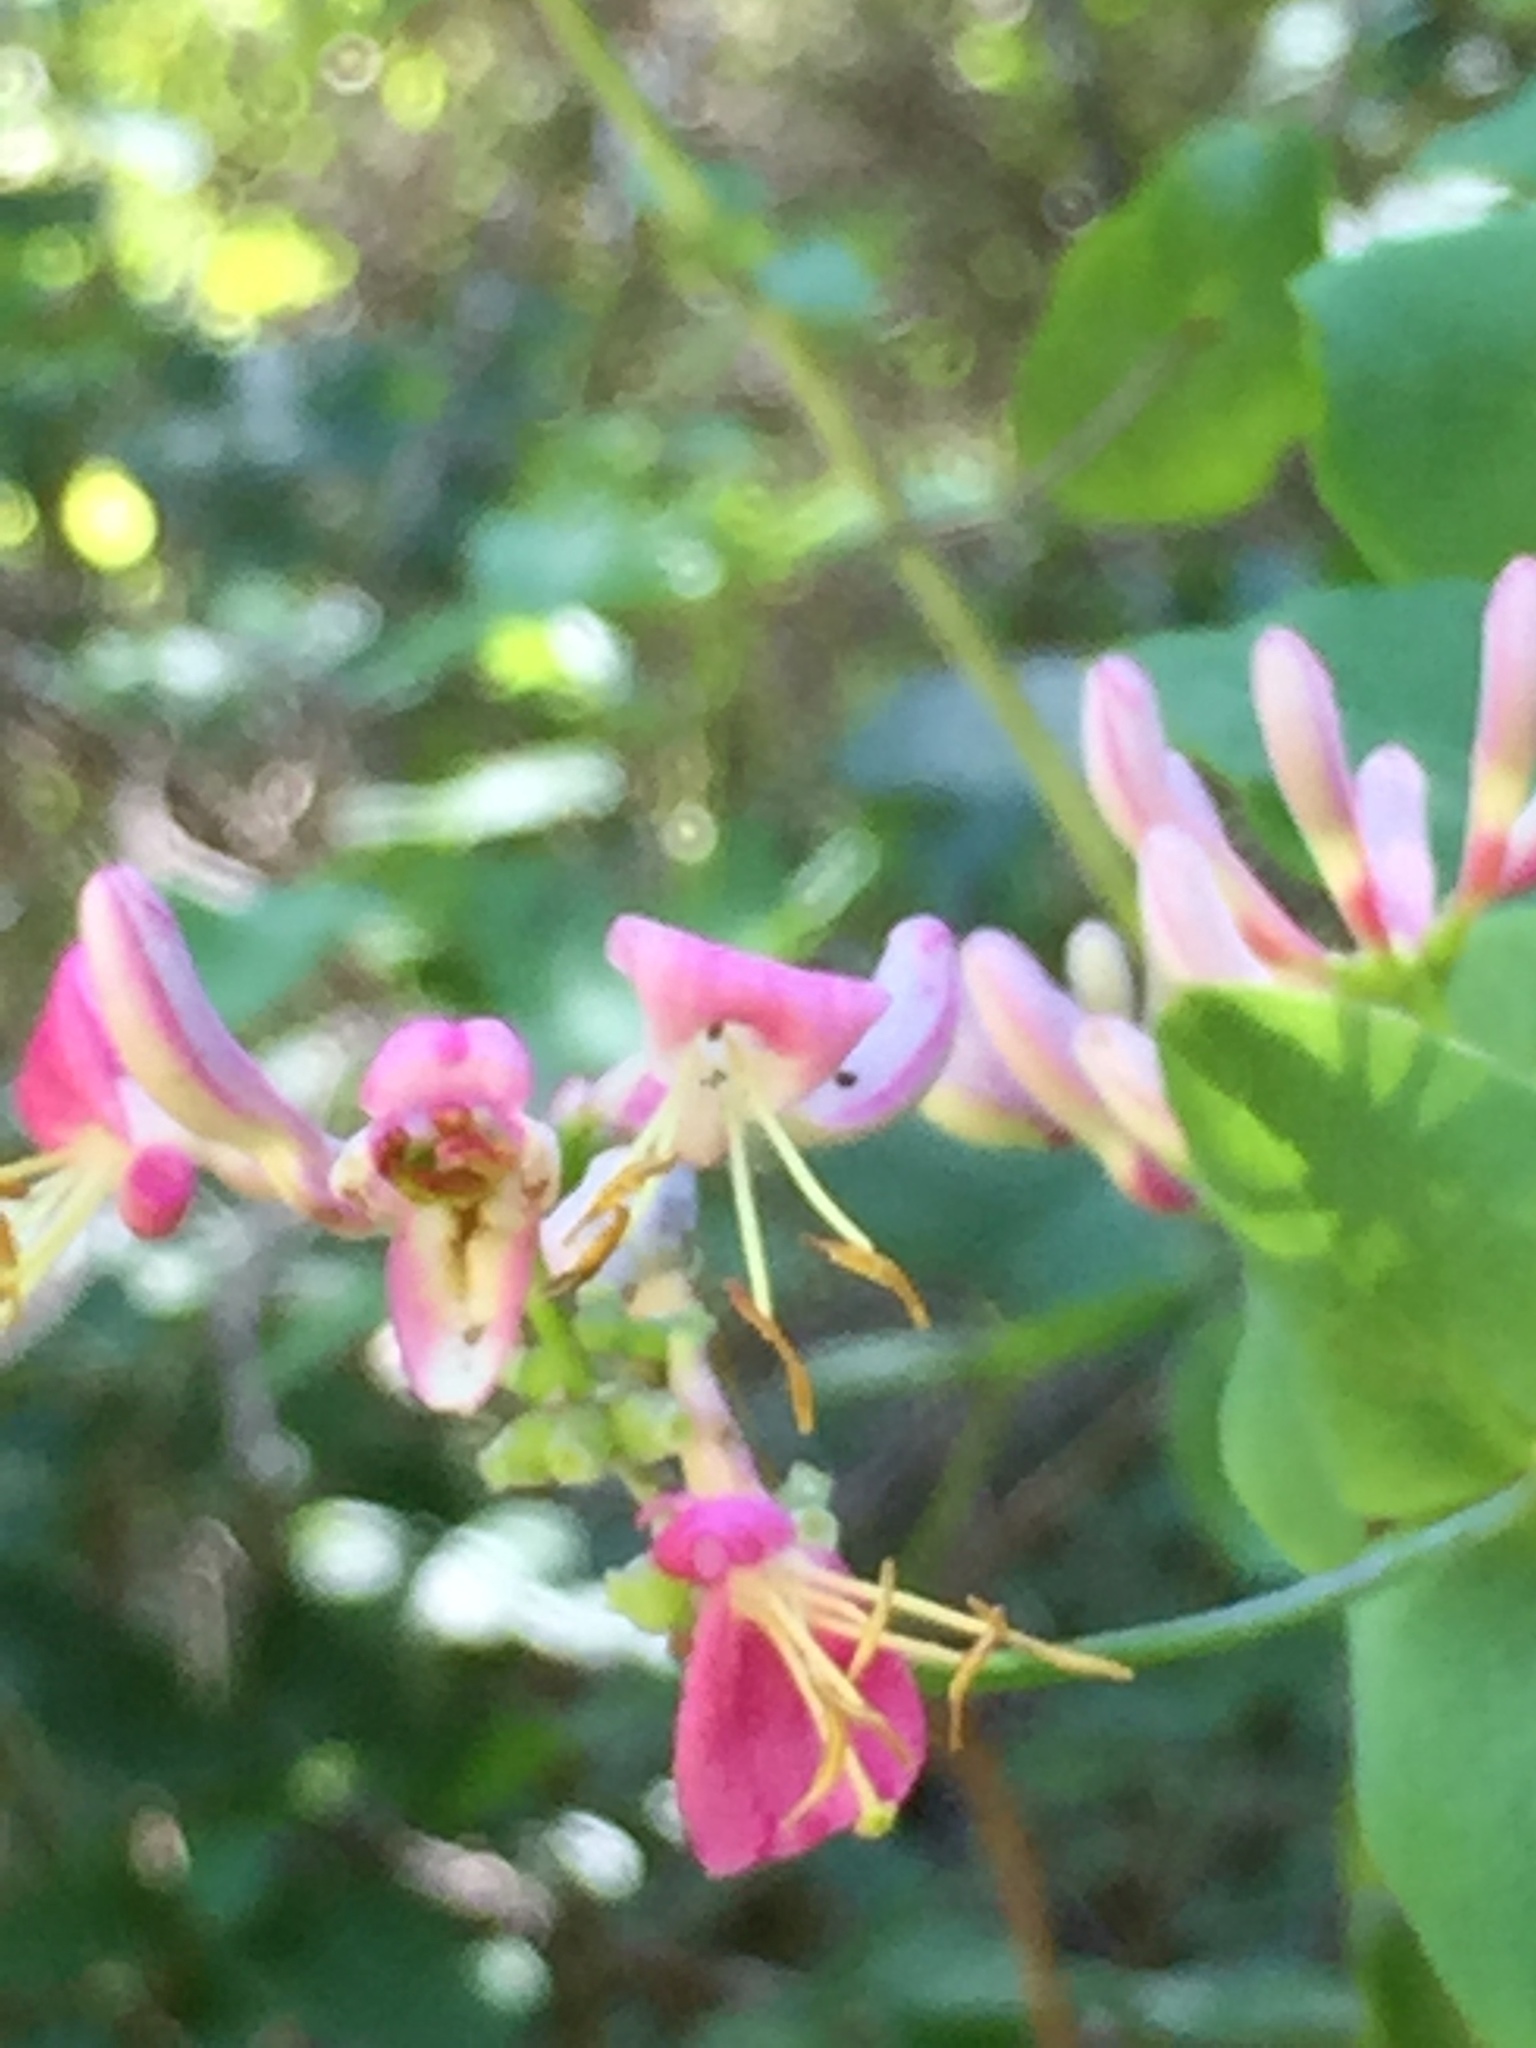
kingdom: Plantae
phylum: Tracheophyta
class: Magnoliopsida
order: Dipsacales
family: Caprifoliaceae
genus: Lonicera
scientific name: Lonicera hispidula
